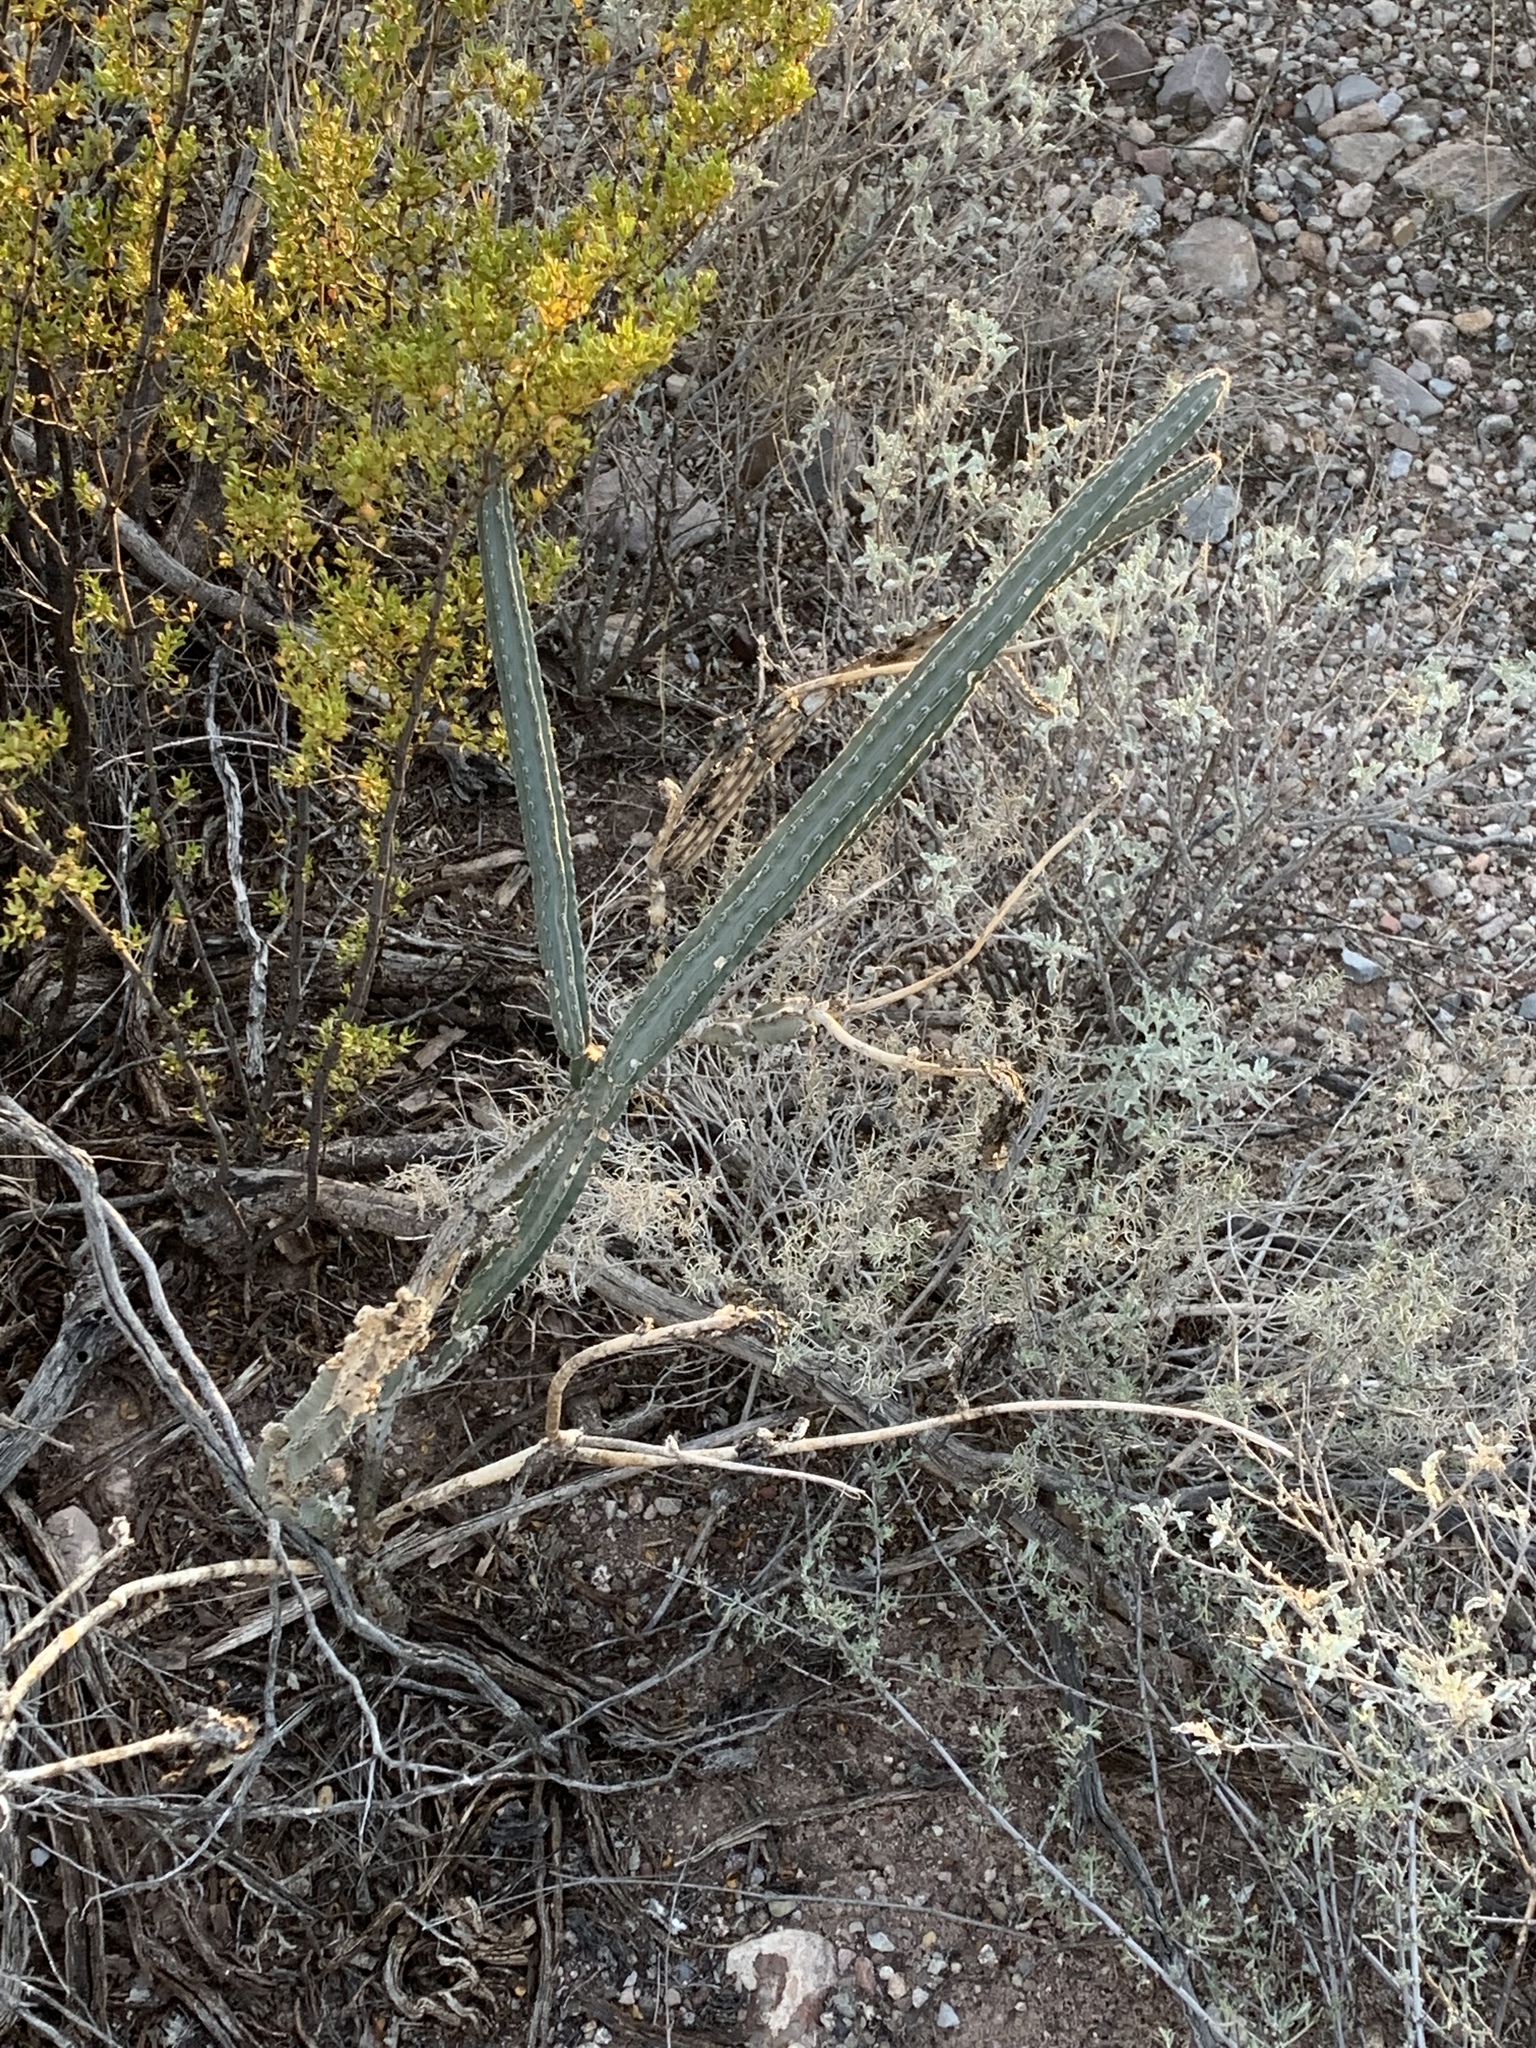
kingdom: Plantae
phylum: Tracheophyta
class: Magnoliopsida
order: Caryophyllales
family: Cactaceae
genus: Peniocereus
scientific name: Peniocereus greggii
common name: Desert night-blooming cereus
